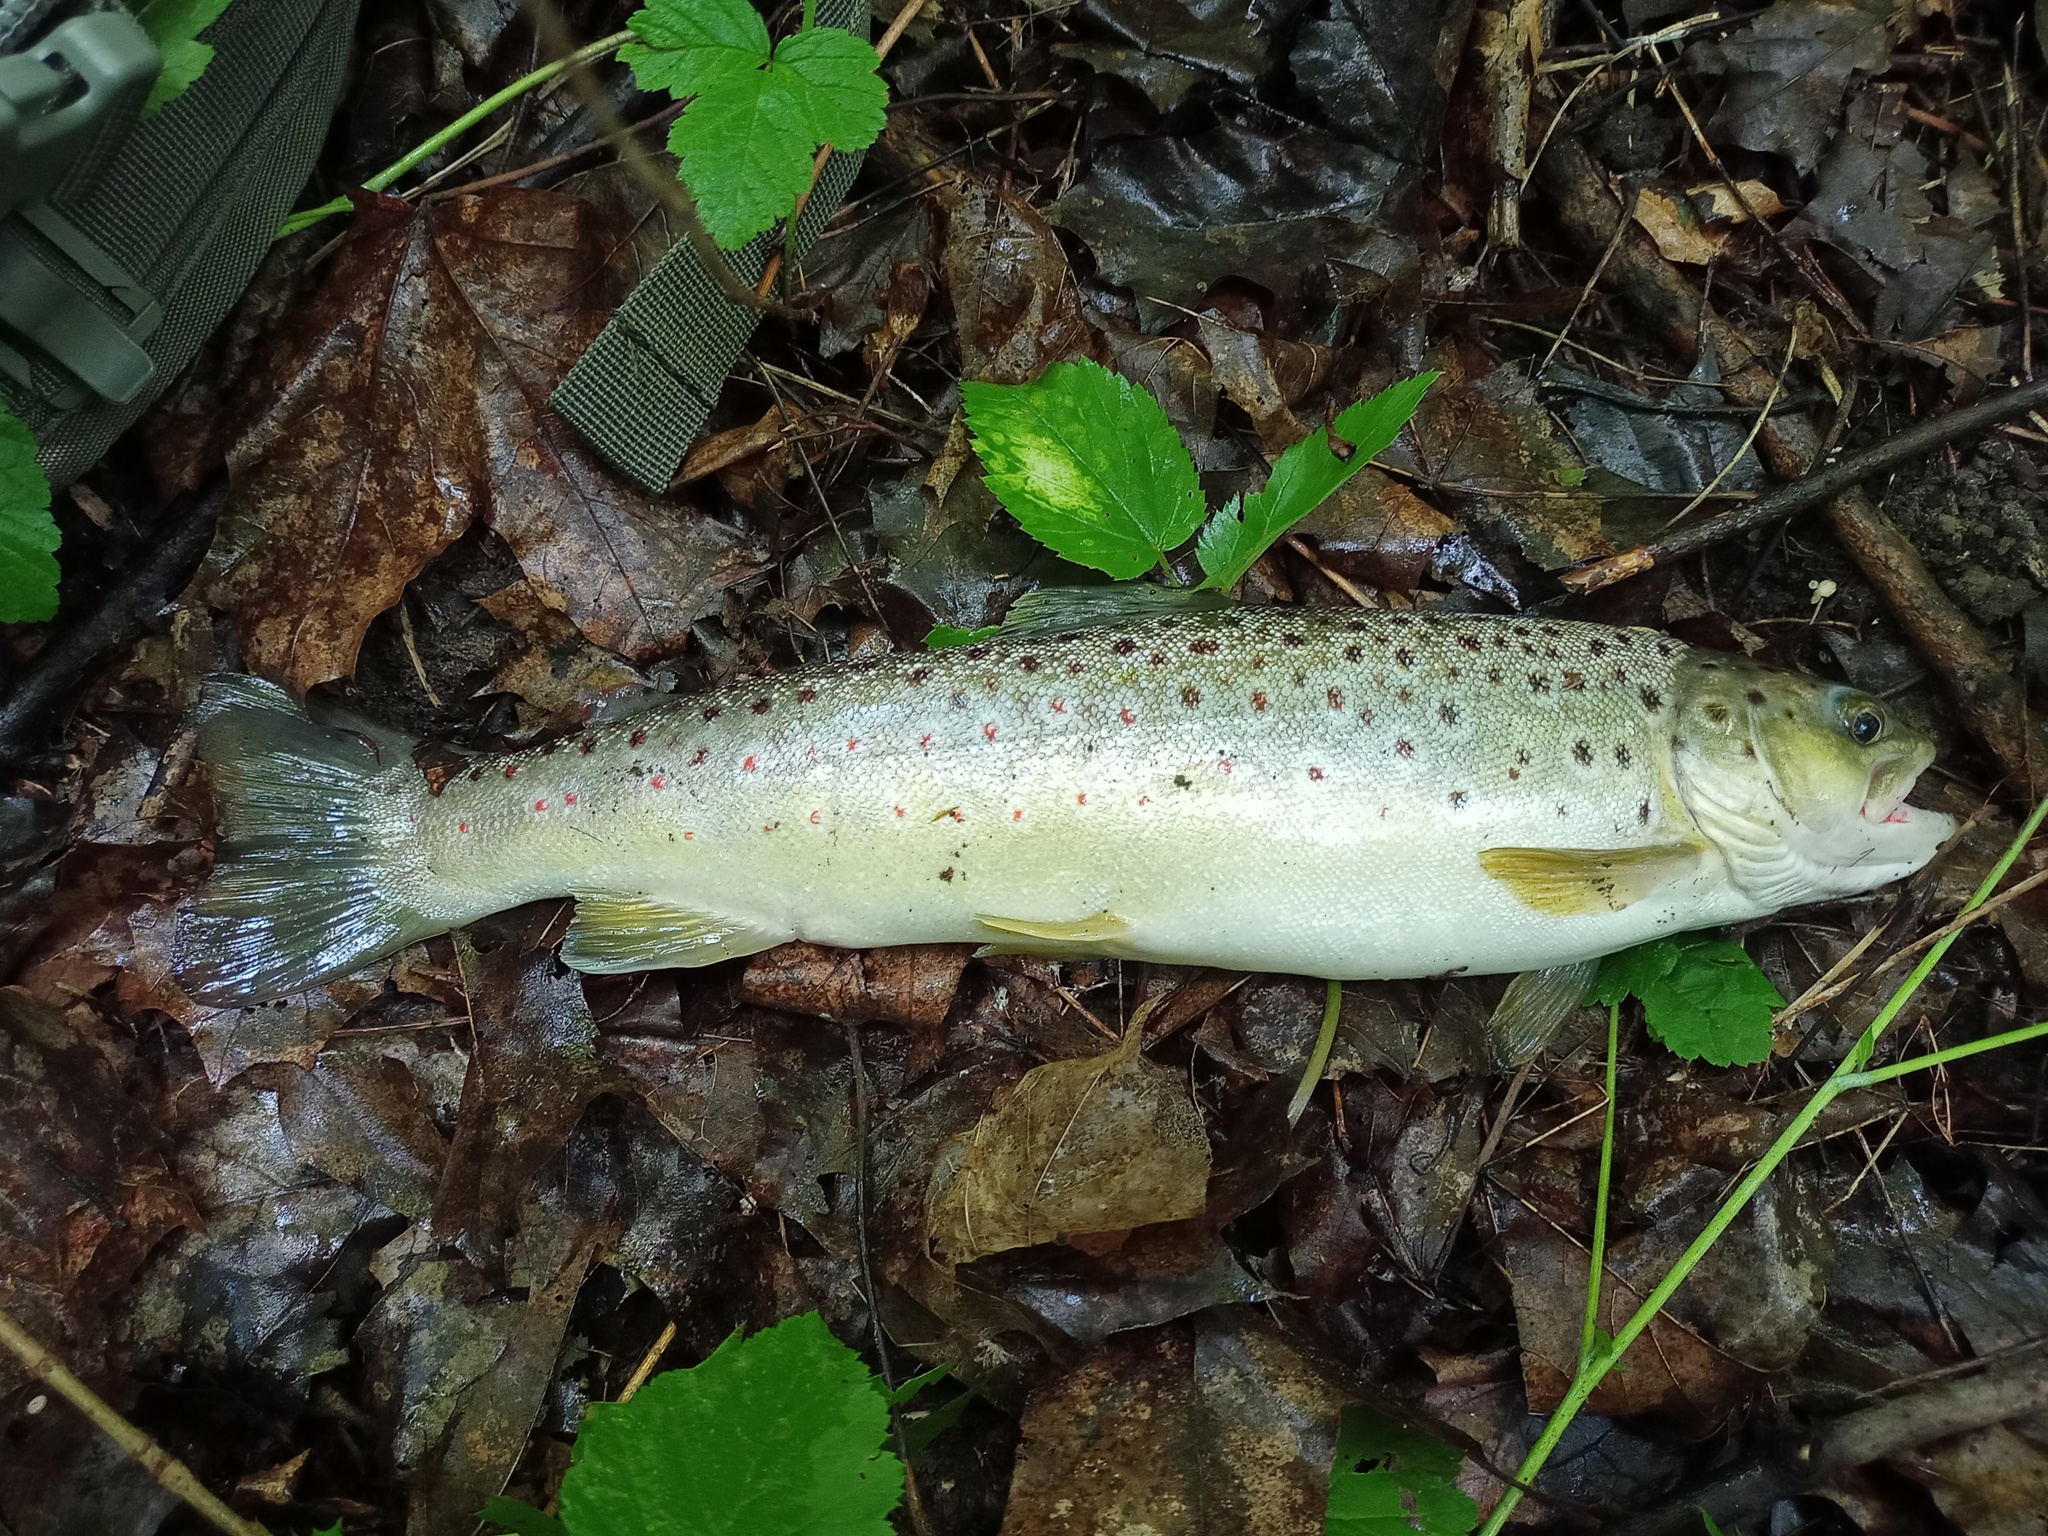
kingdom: Animalia
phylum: Chordata
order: Salmoniformes
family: Salmonidae
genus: Salmo
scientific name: Salmo trutta
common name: Brown trout
